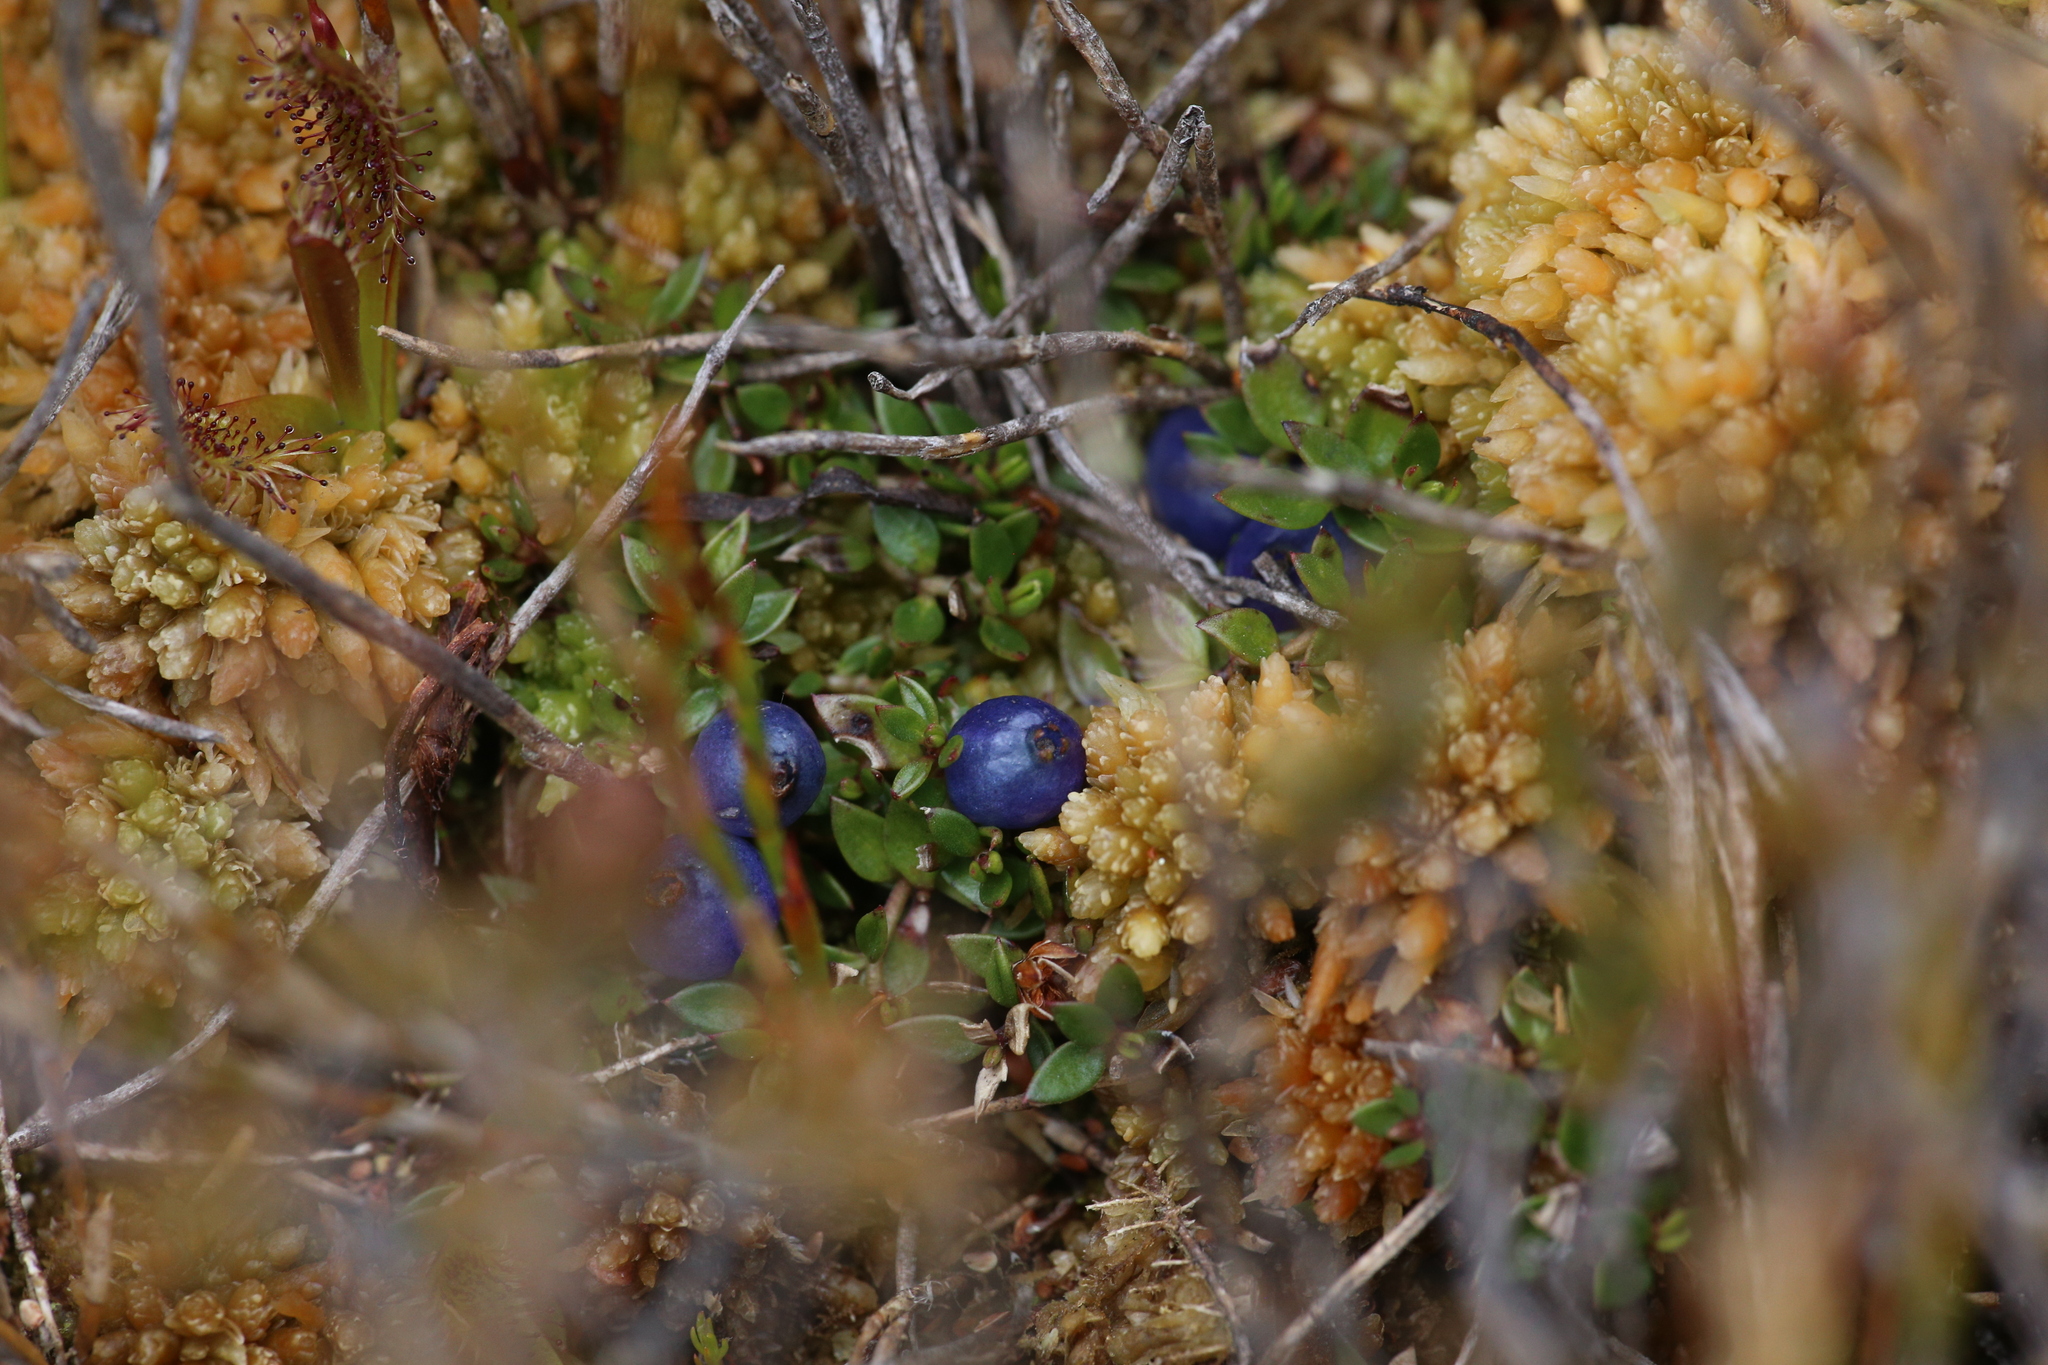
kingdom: Plantae
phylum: Tracheophyta
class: Magnoliopsida
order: Gentianales
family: Rubiaceae
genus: Coprosma
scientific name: Coprosma moorei
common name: Turquoise coprosma
